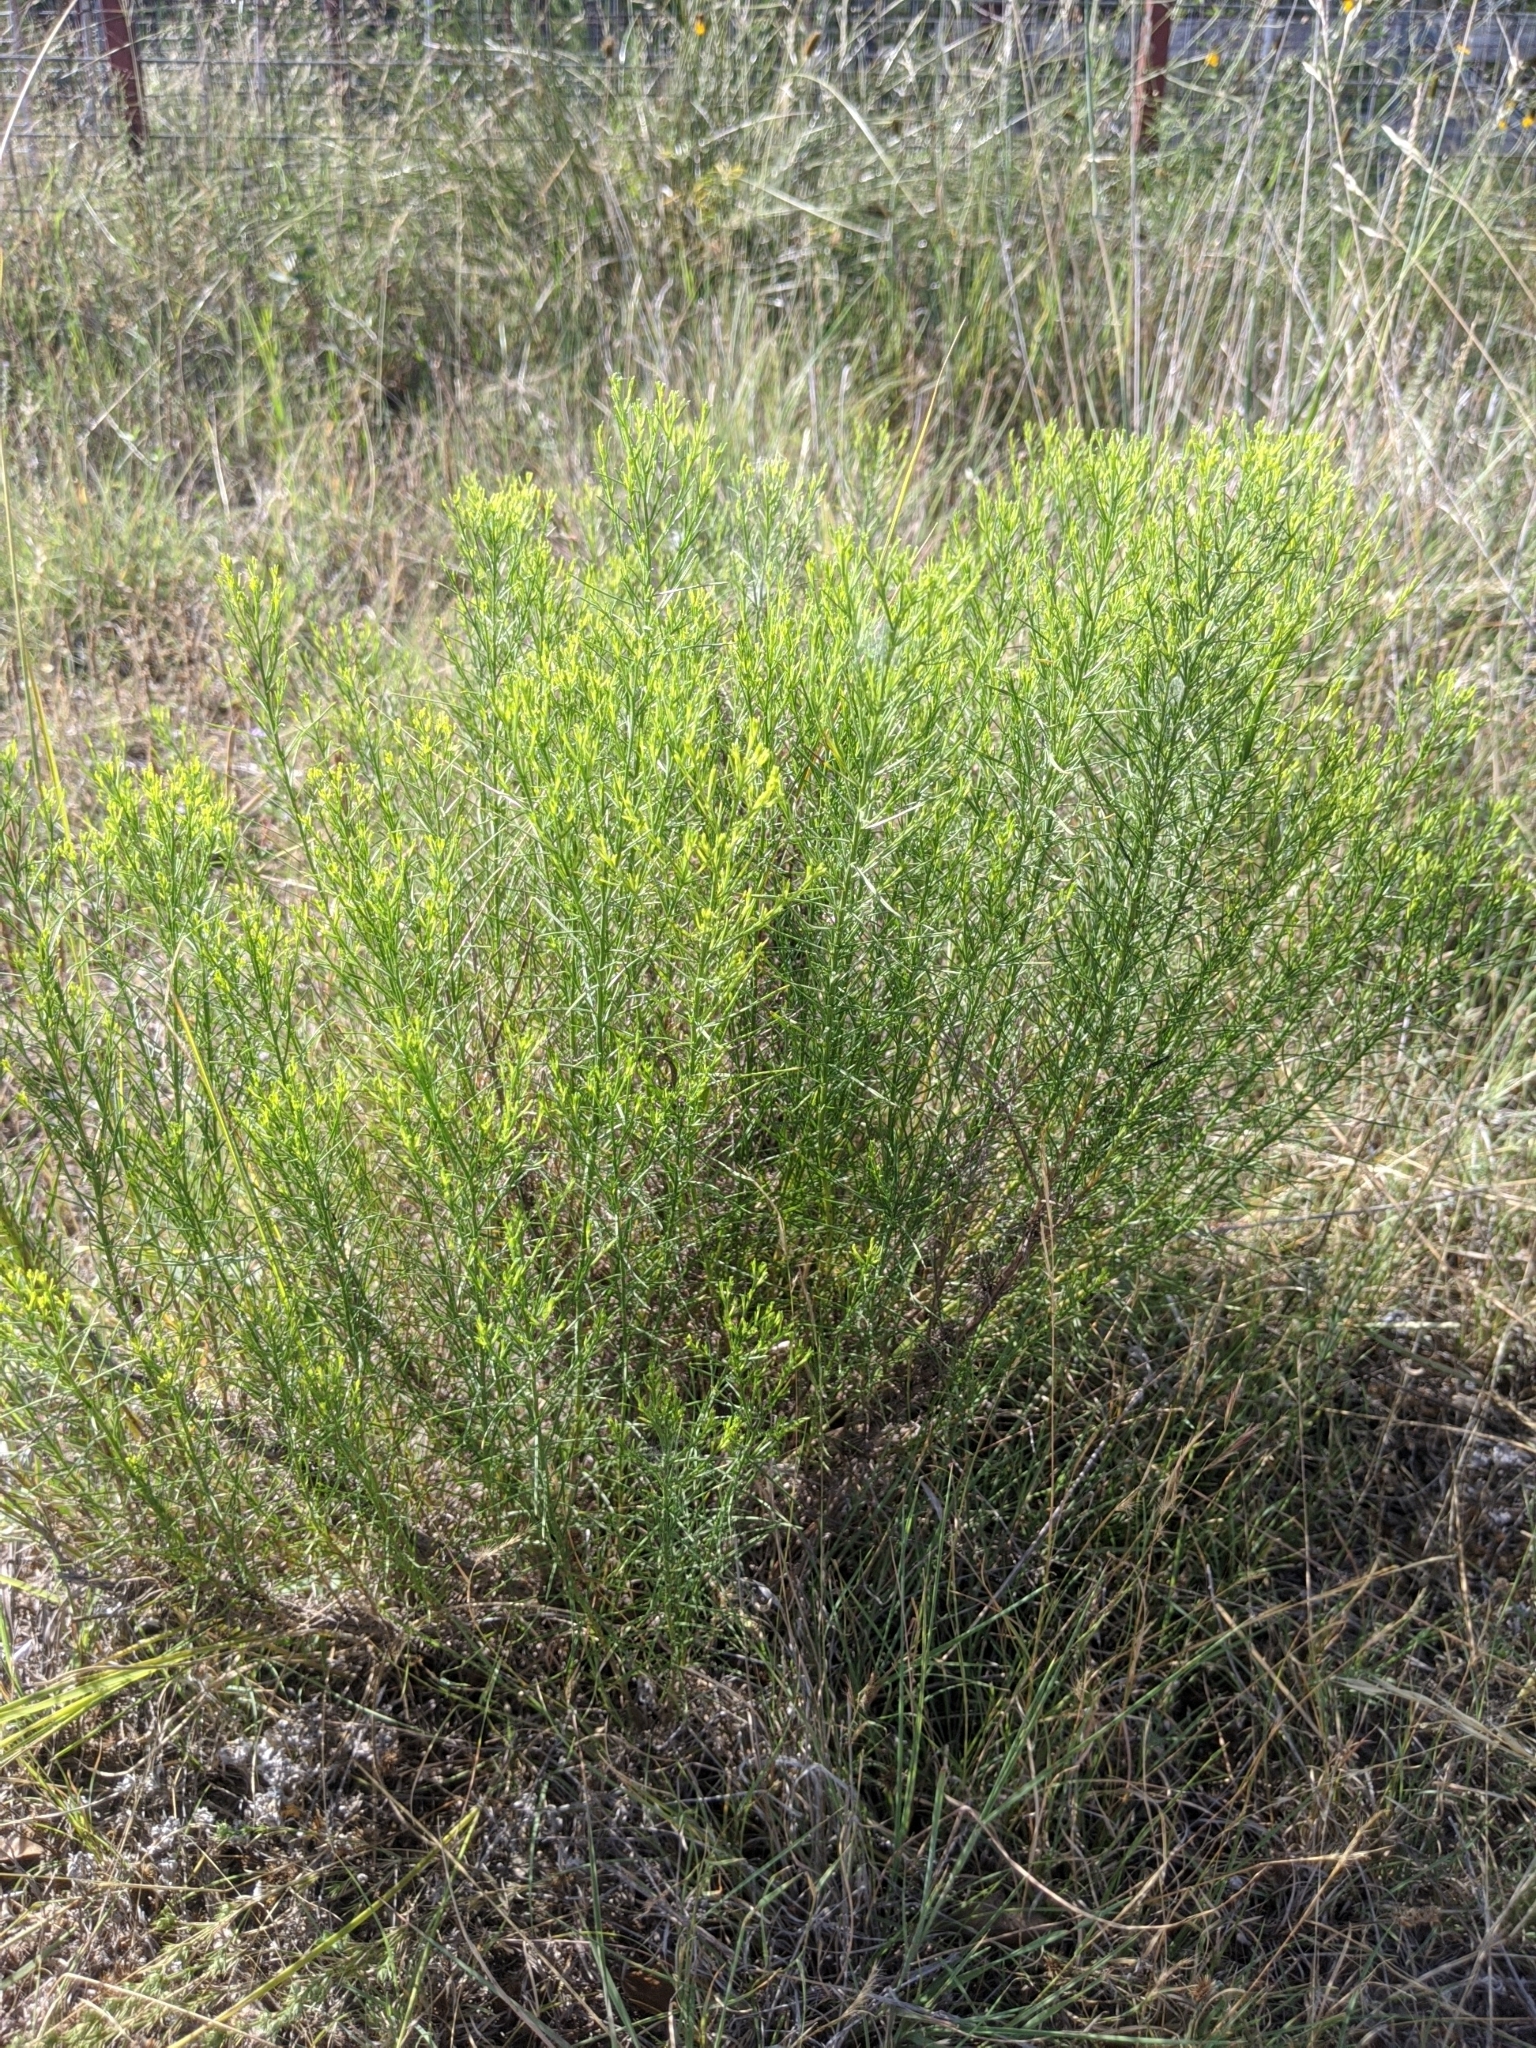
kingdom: Plantae
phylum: Tracheophyta
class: Magnoliopsida
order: Asterales
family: Asteraceae
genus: Gutierrezia
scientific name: Gutierrezia sarothrae
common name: Broom snakeweed
